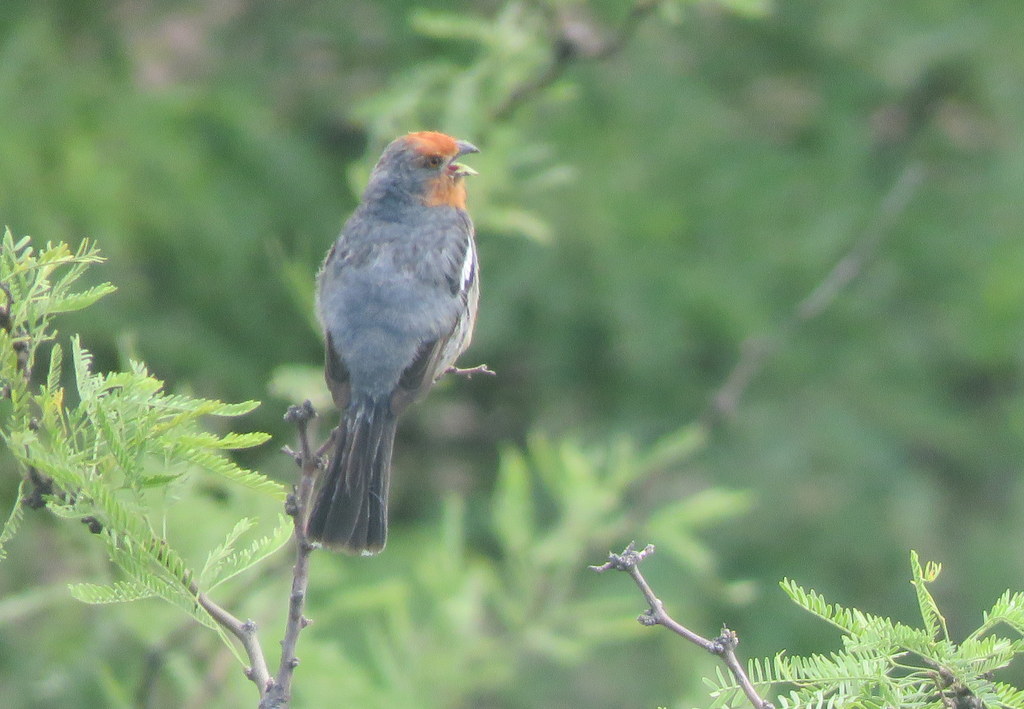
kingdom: Animalia
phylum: Chordata
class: Aves
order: Passeriformes
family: Cotingidae
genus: Phytotoma
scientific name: Phytotoma rutila
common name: White-tipped plantcutter
